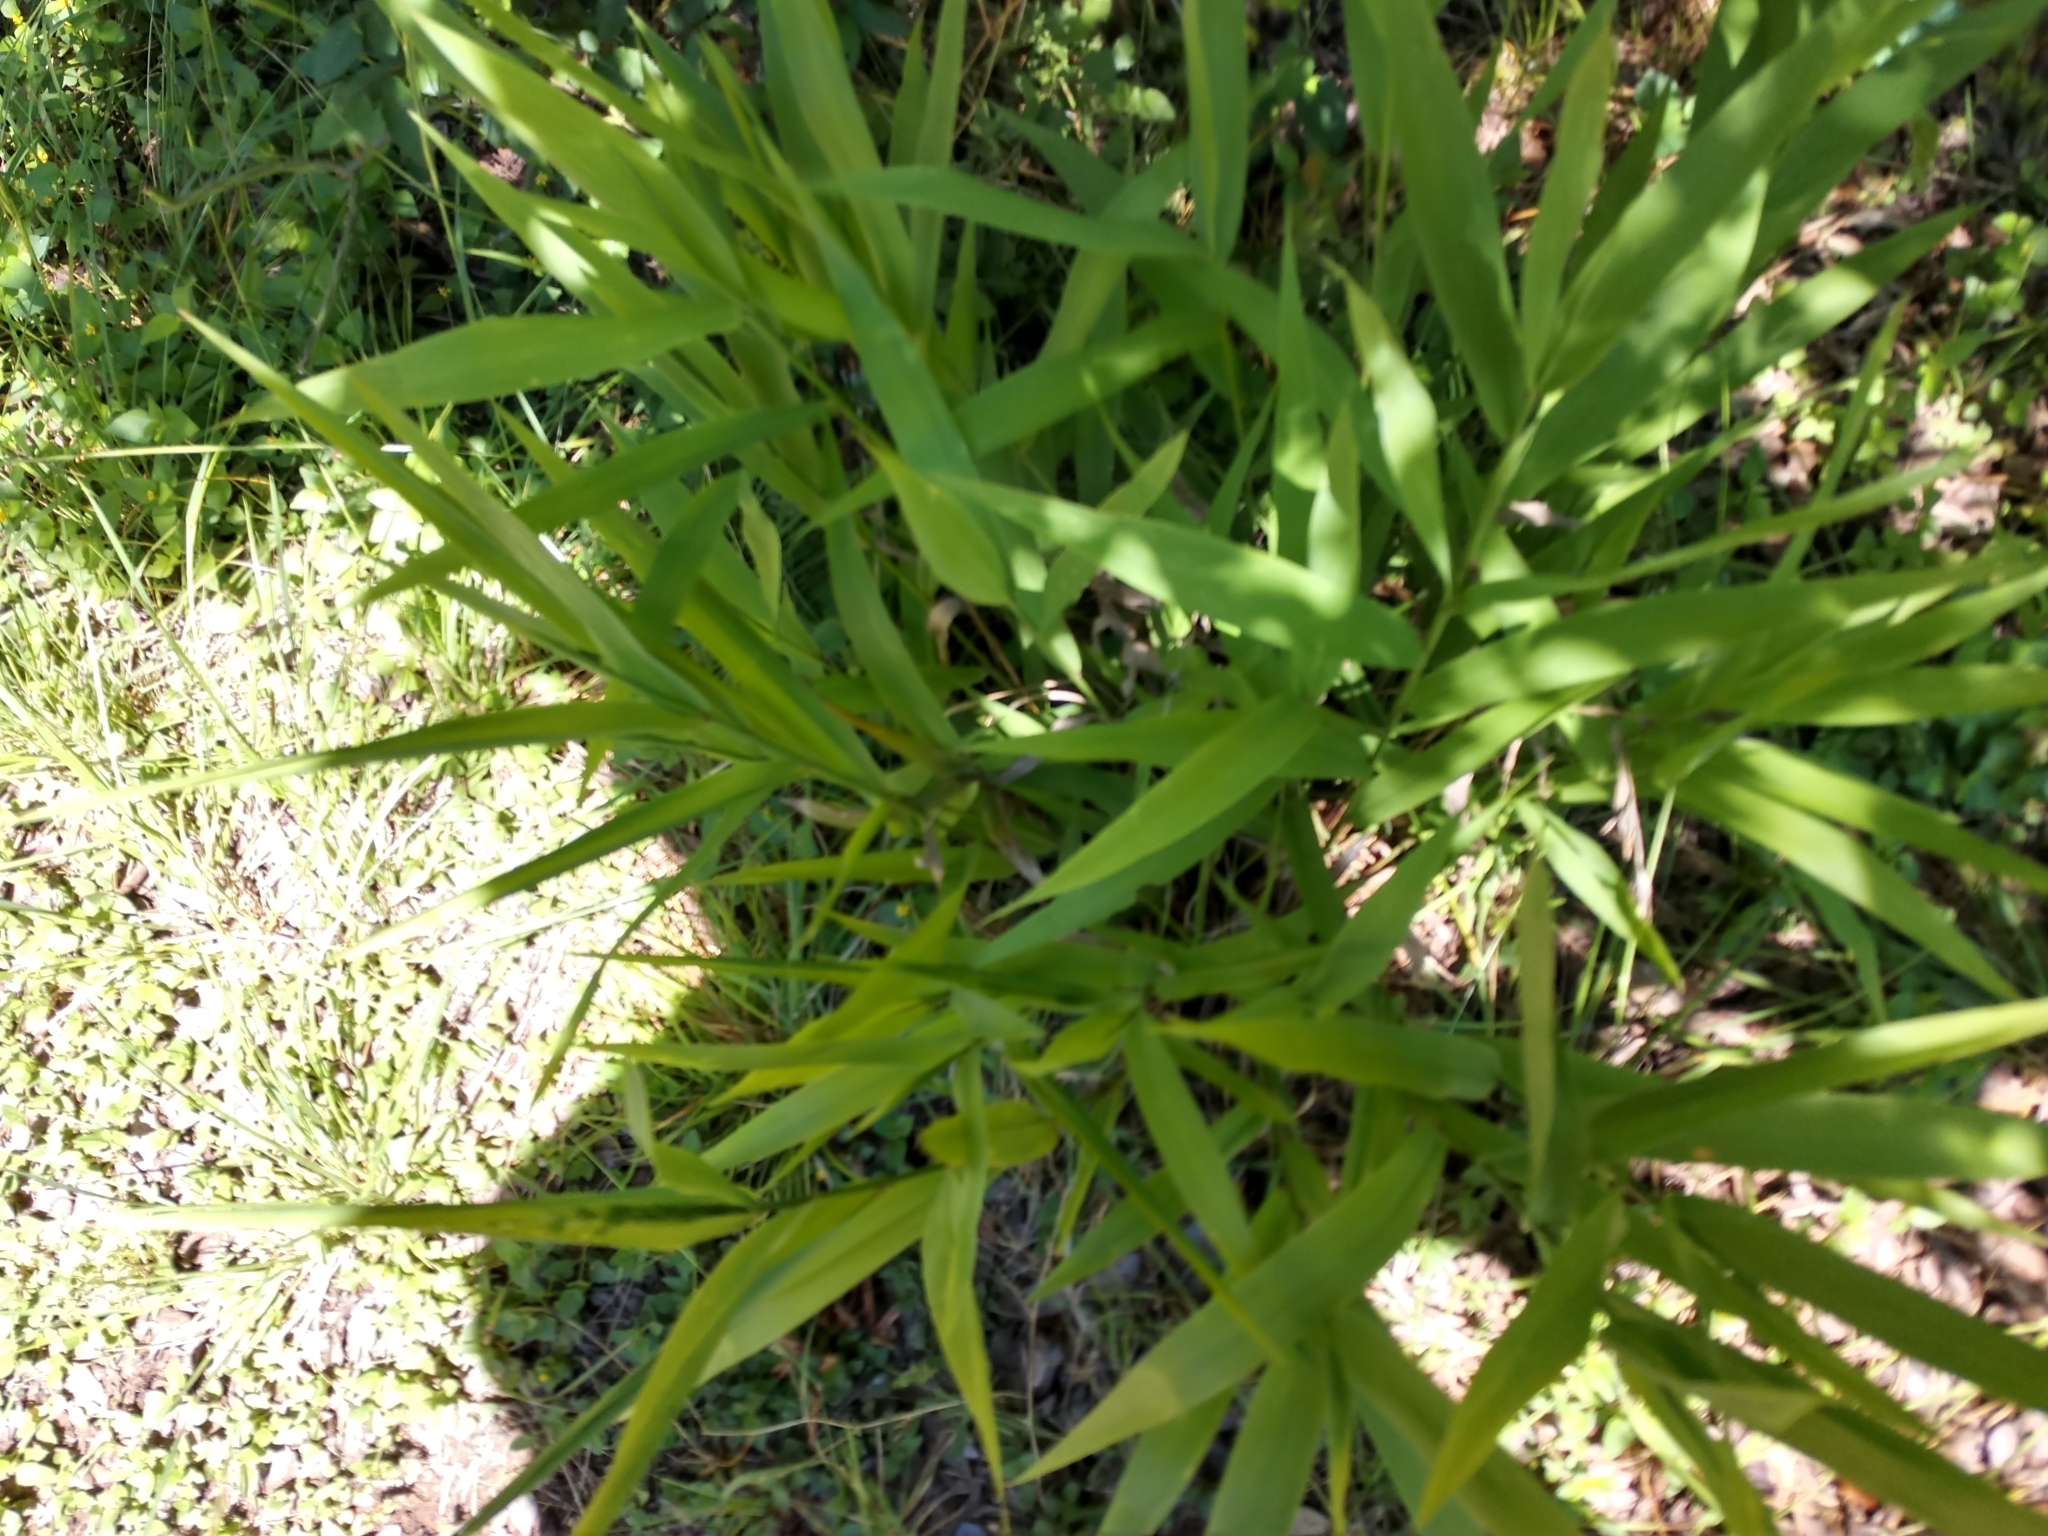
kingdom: Plantae
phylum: Tracheophyta
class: Liliopsida
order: Poales
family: Poaceae
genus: Chasmanthium
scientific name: Chasmanthium latifolium
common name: Broad-leaved chasmanthium
